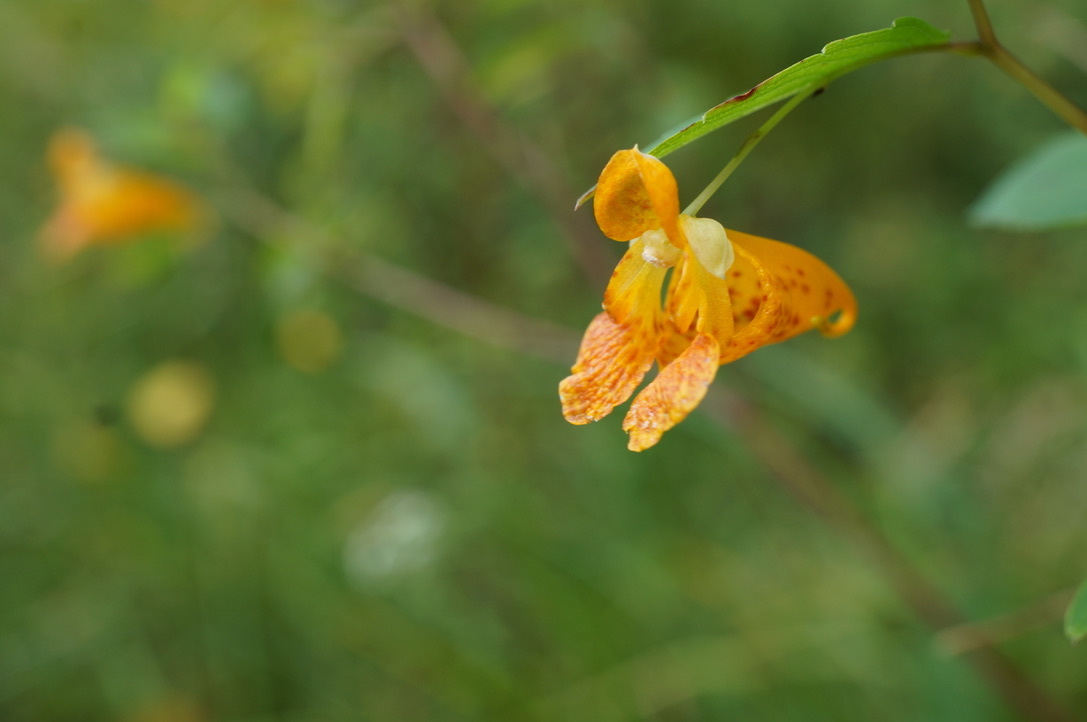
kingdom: Plantae
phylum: Tracheophyta
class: Magnoliopsida
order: Ericales
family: Balsaminaceae
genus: Impatiens
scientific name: Impatiens capensis
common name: Orange balsam
